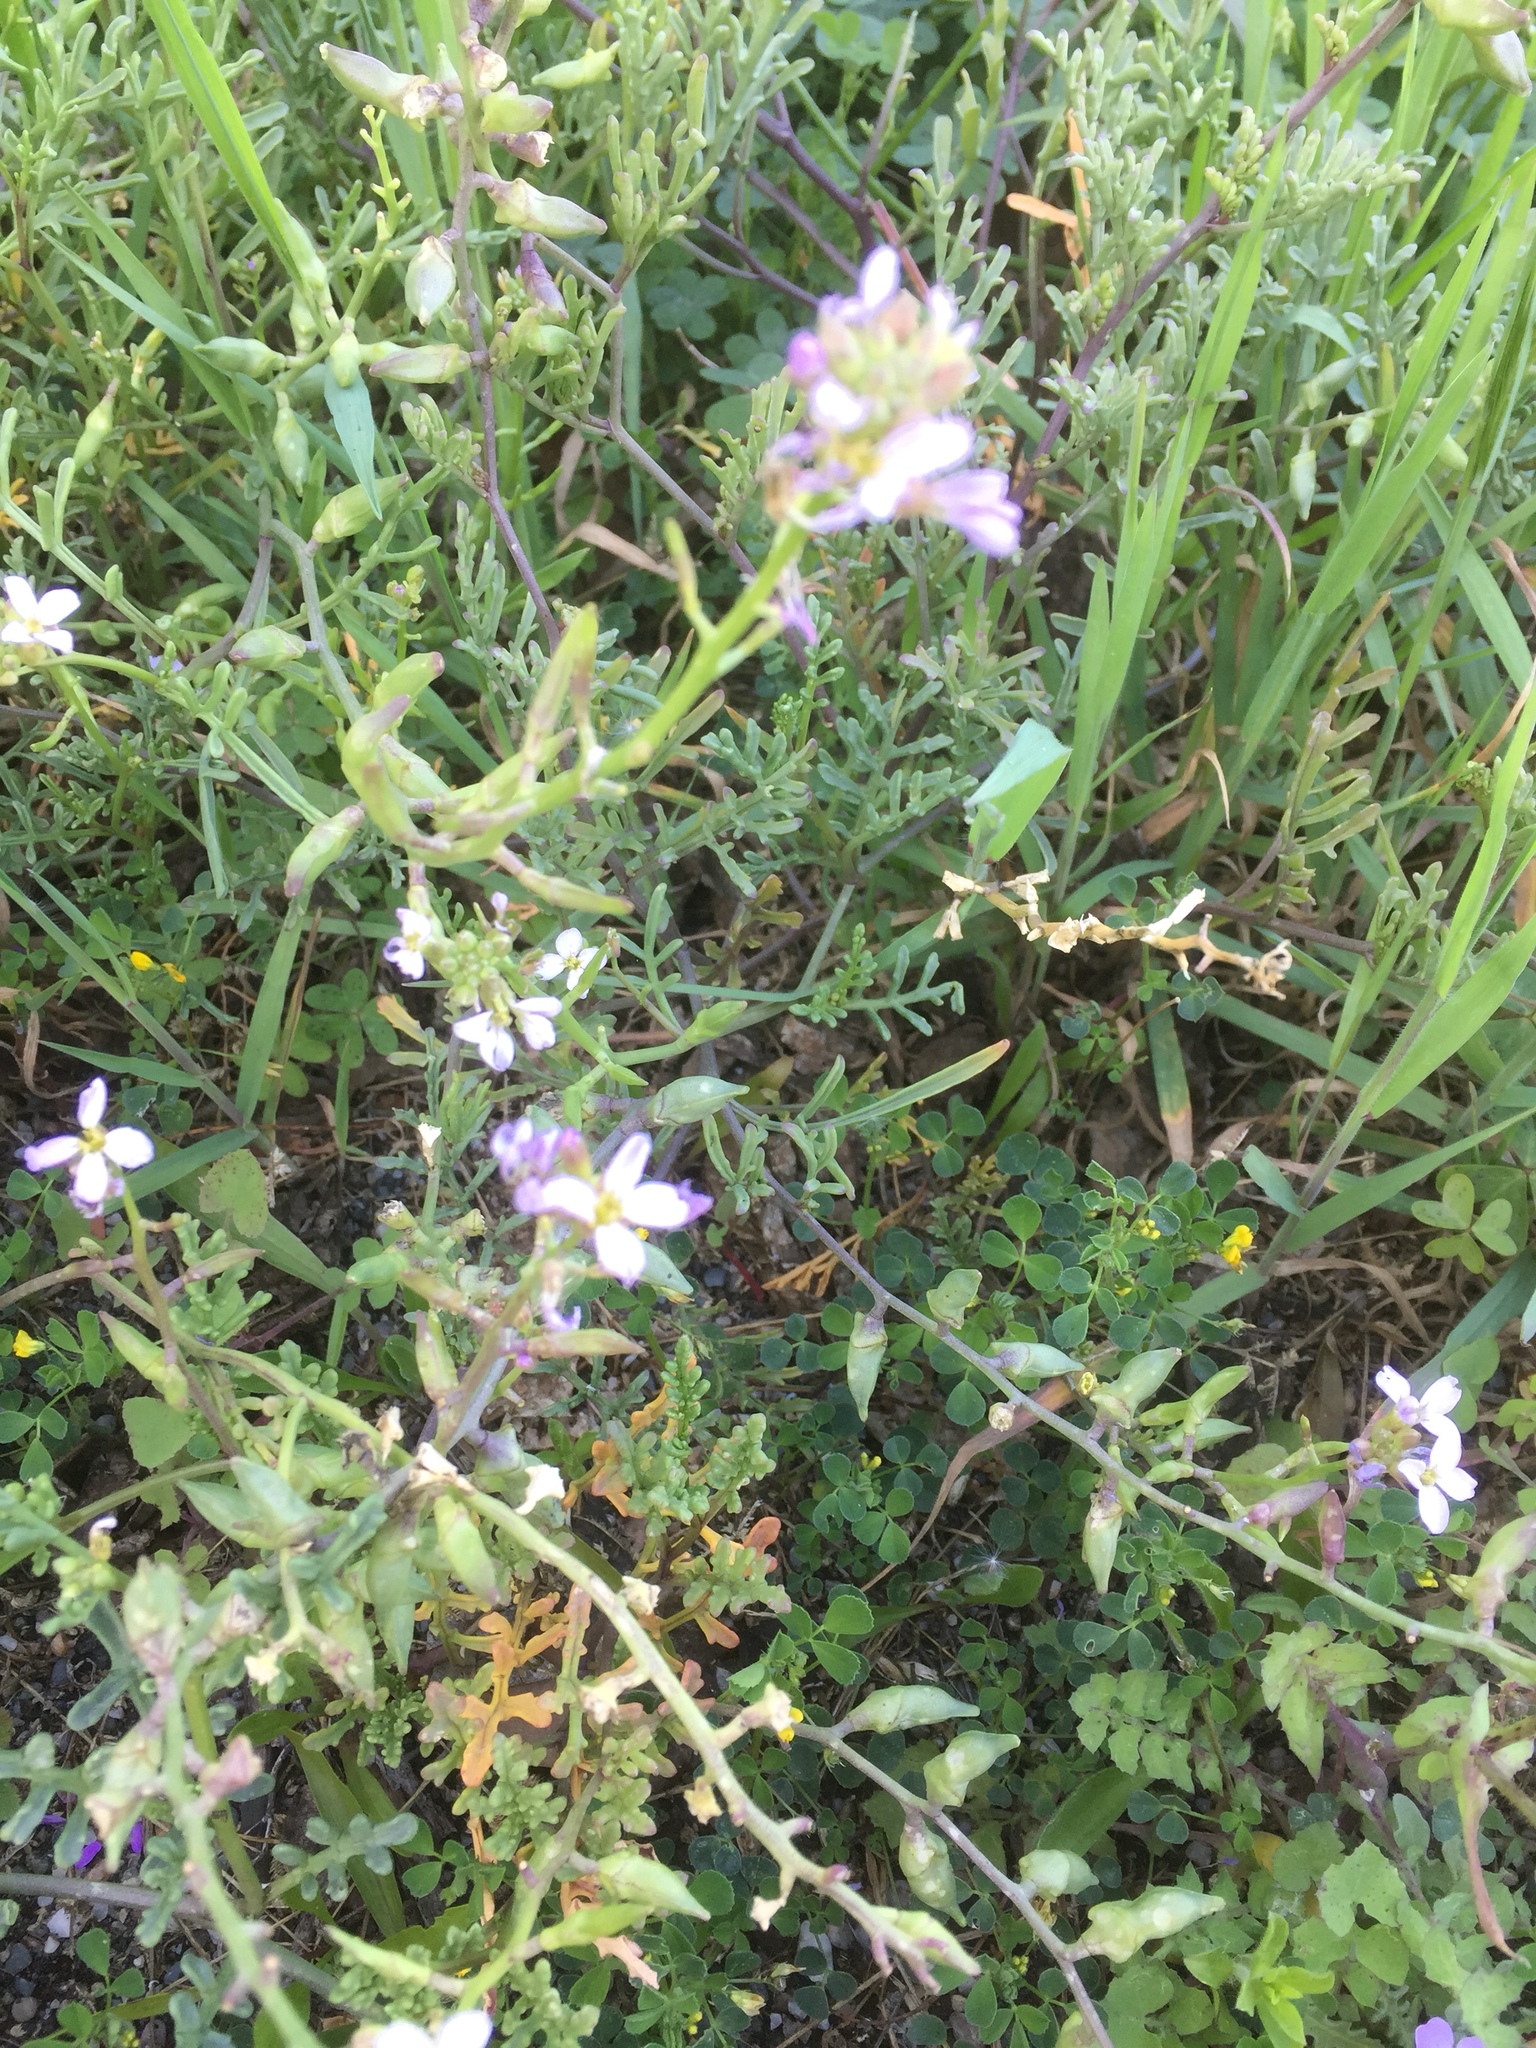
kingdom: Plantae
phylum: Tracheophyta
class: Magnoliopsida
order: Brassicales
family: Brassicaceae
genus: Cakile
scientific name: Cakile maritima
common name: Sea rocket
